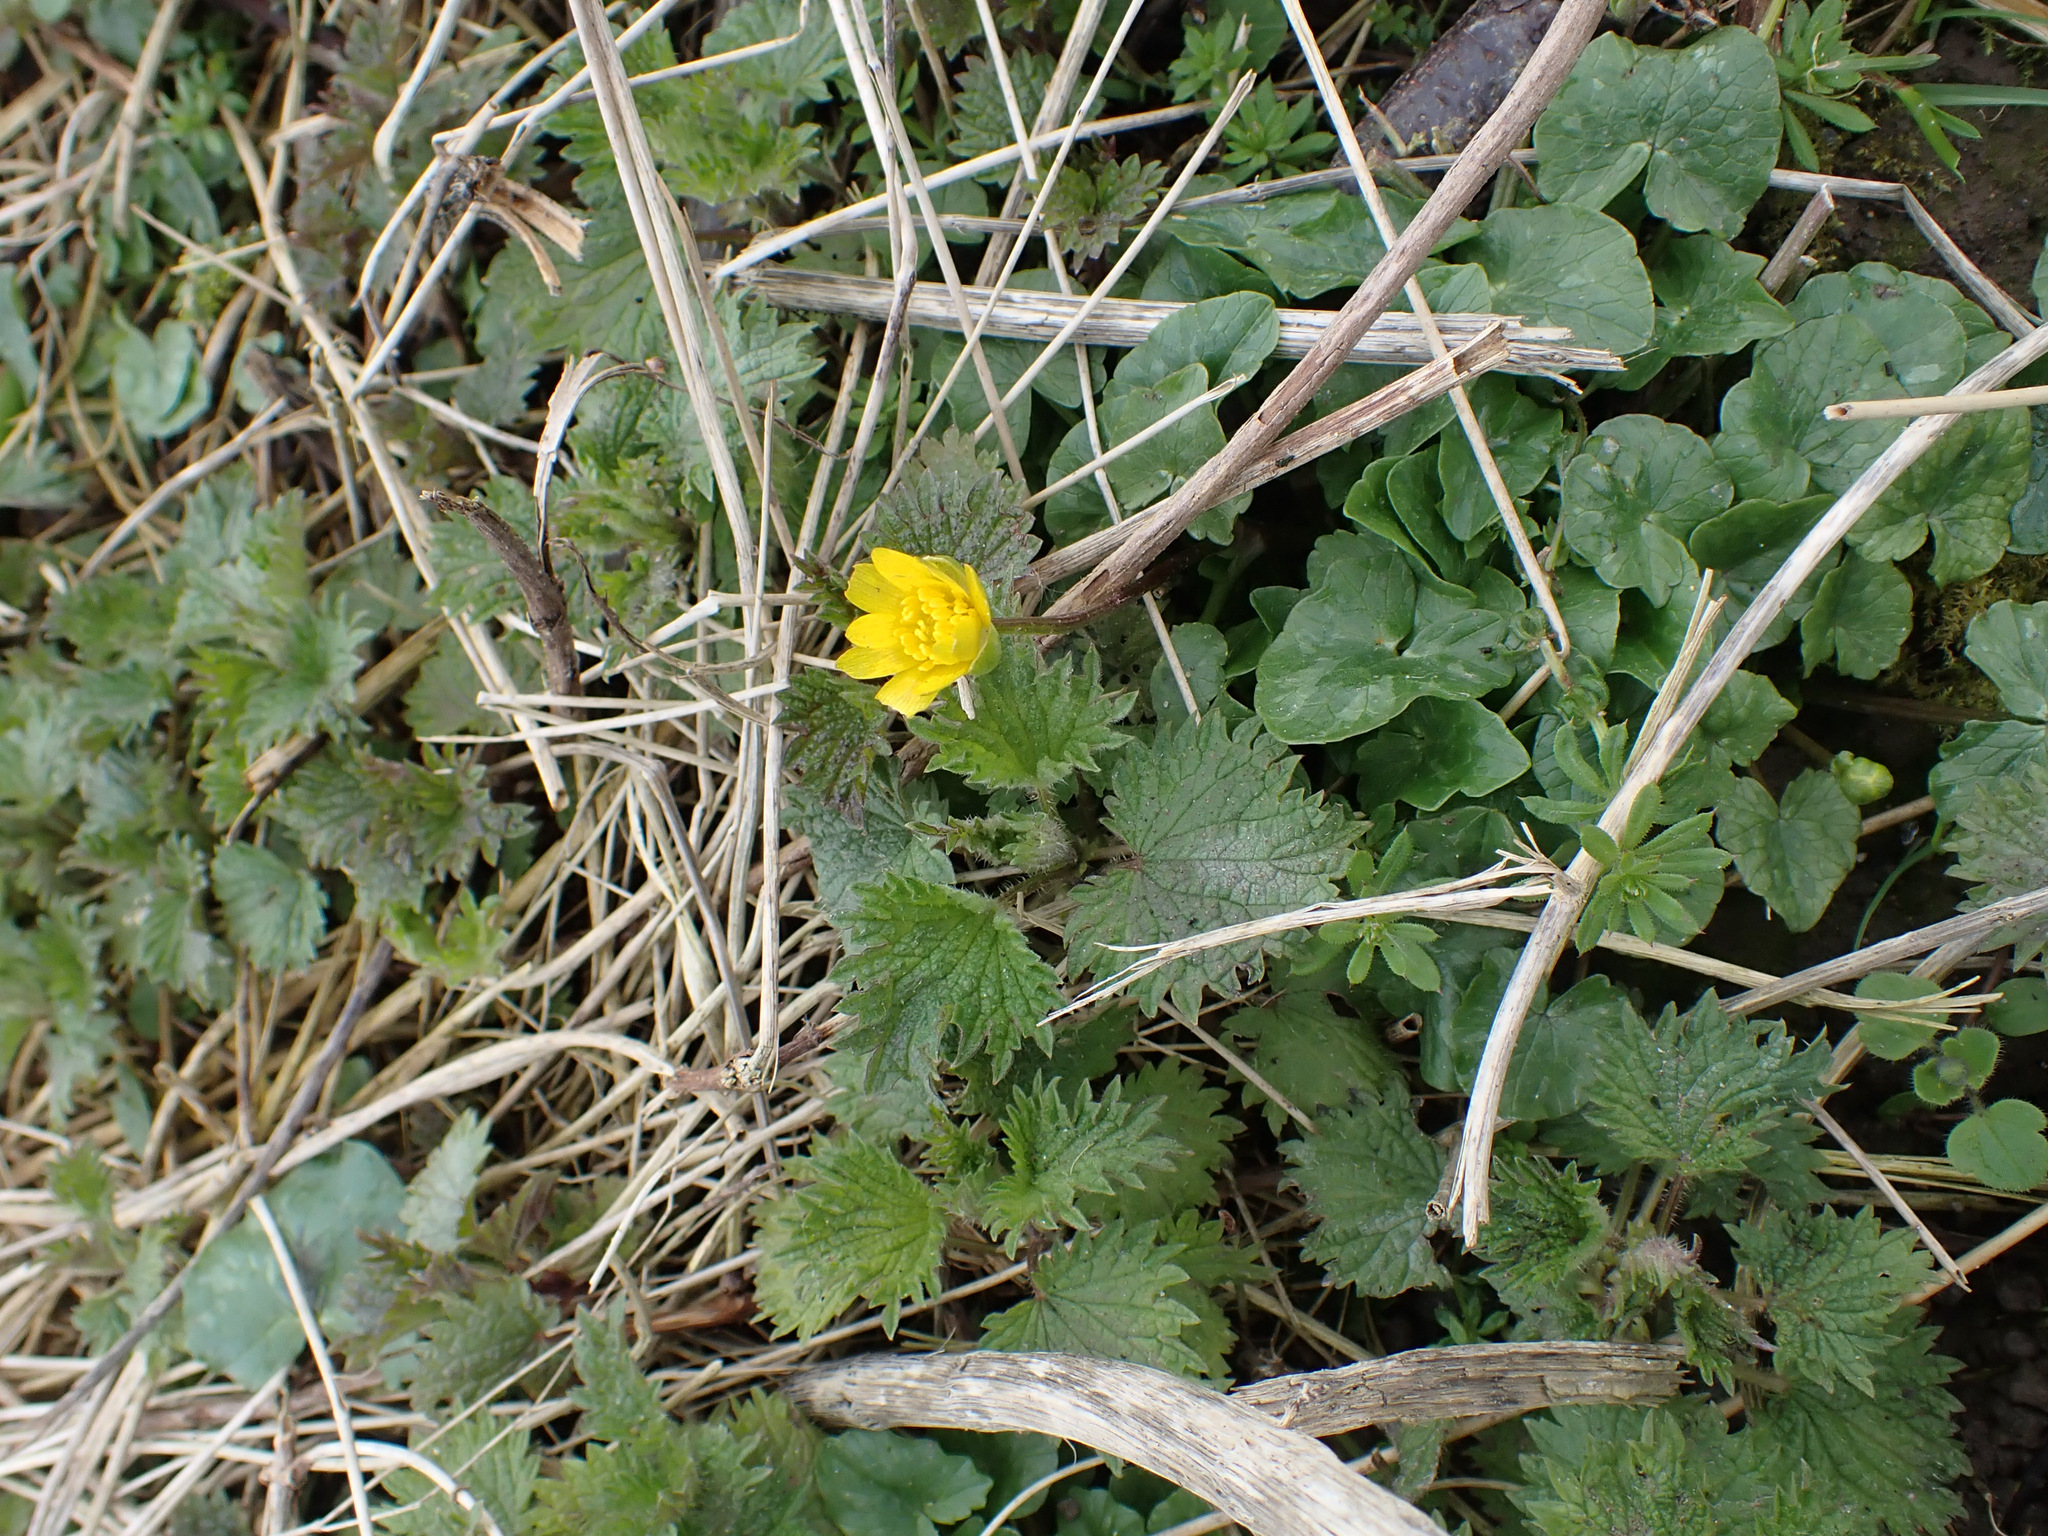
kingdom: Plantae
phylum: Tracheophyta
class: Magnoliopsida
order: Ranunculales
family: Ranunculaceae
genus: Ficaria
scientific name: Ficaria verna
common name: Lesser celandine
